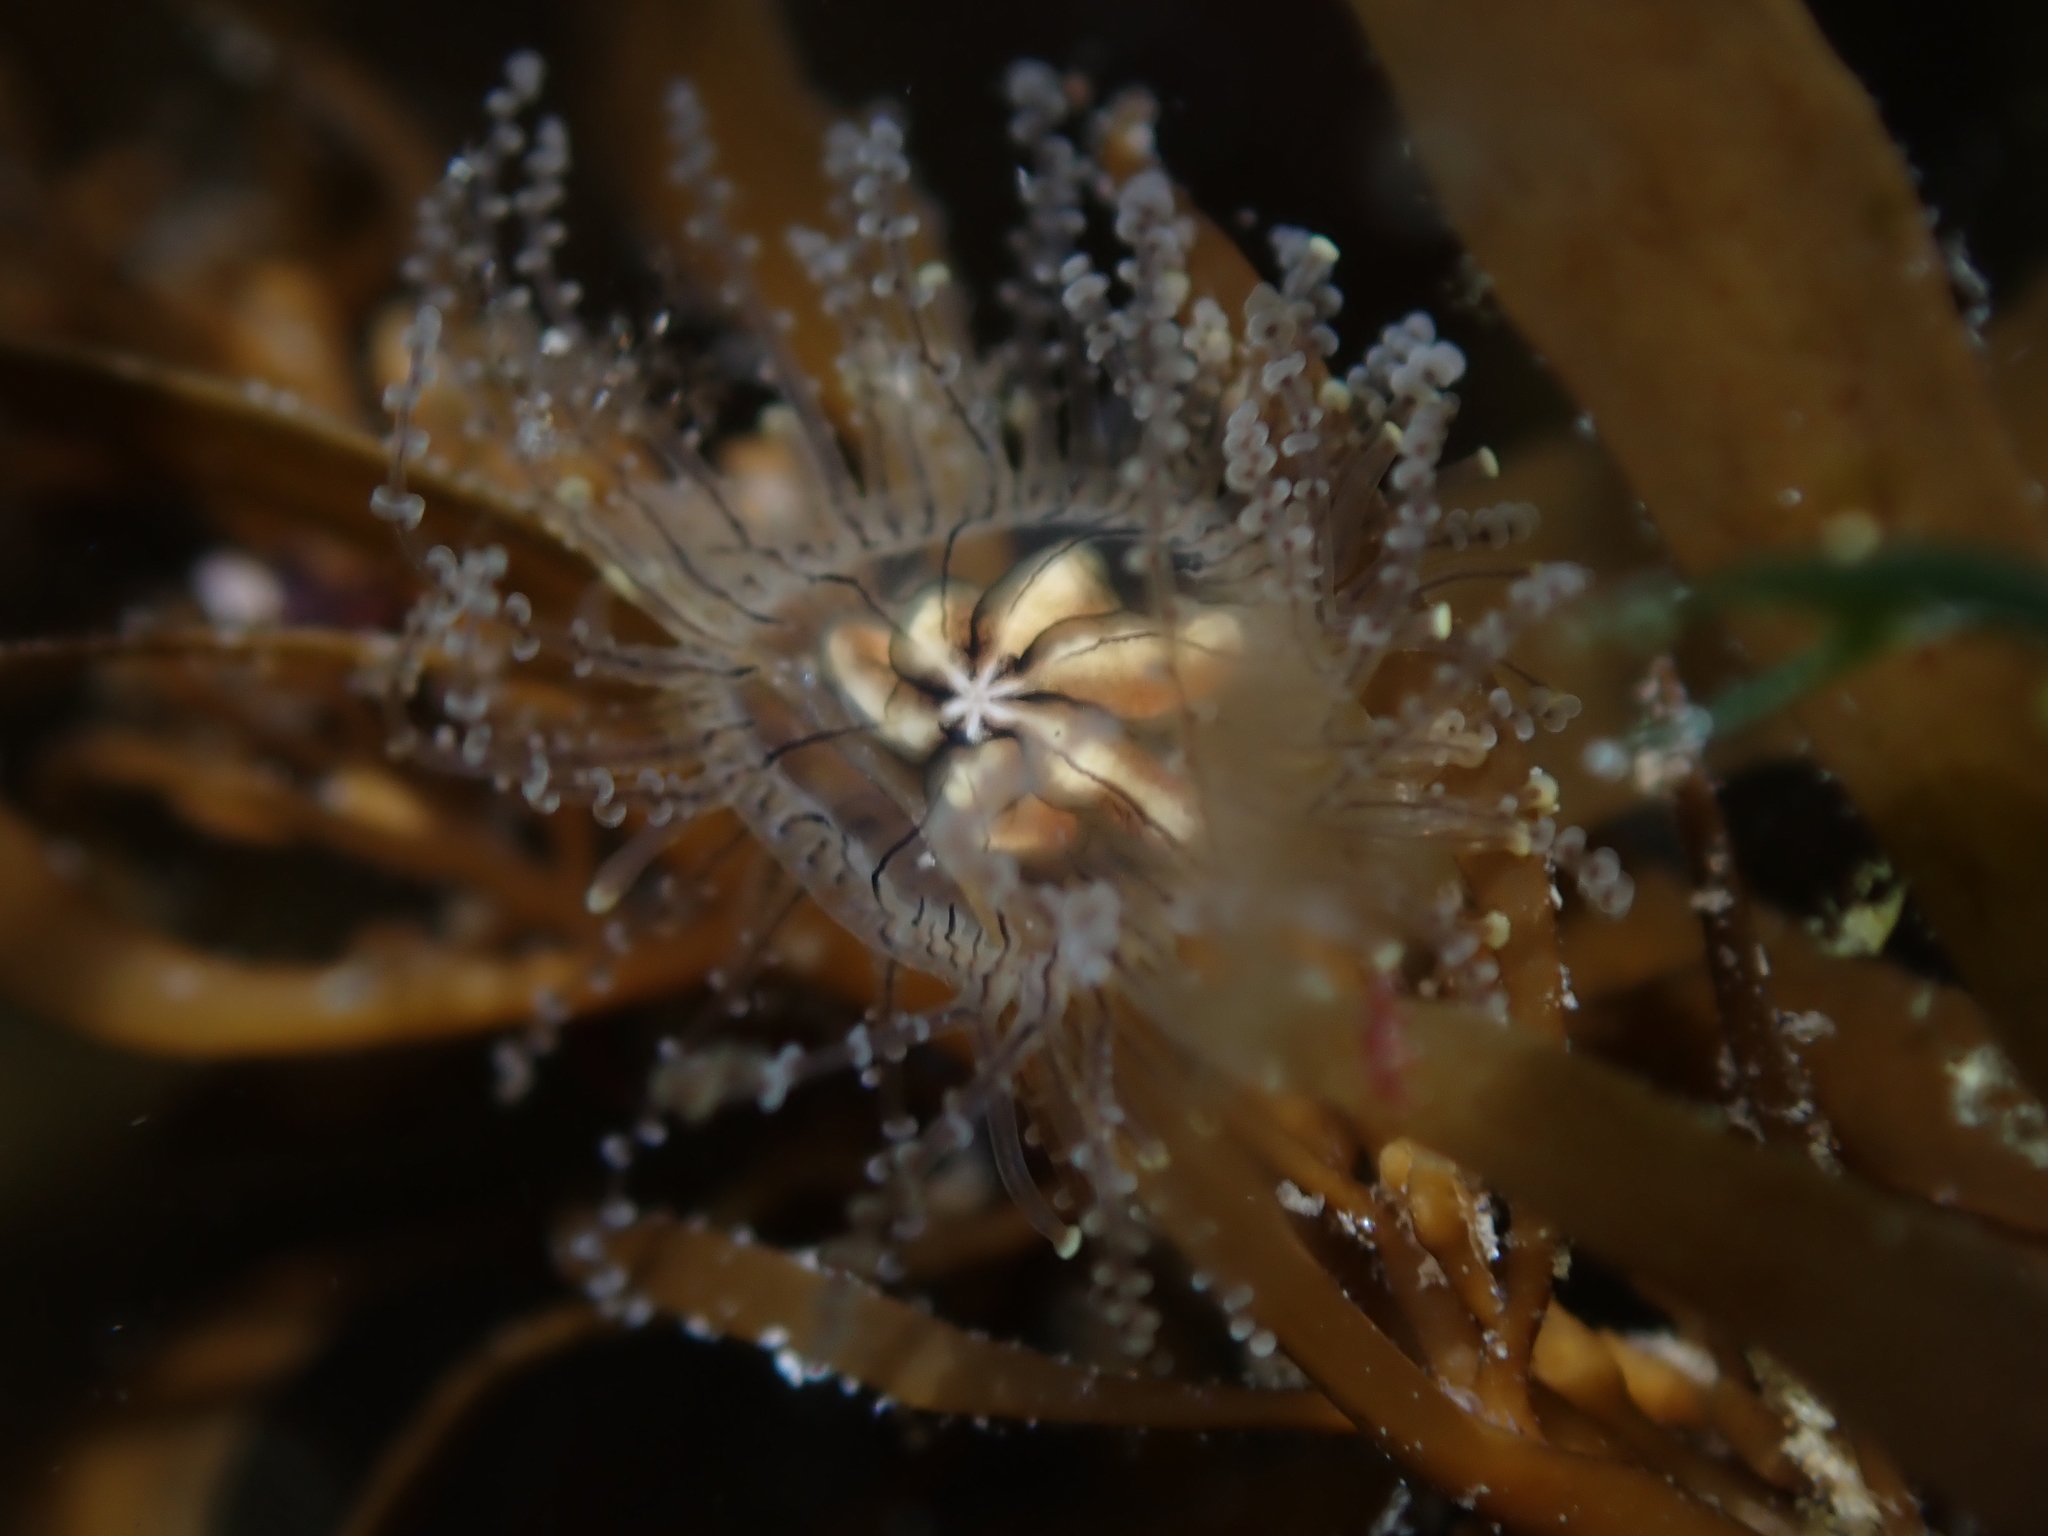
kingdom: Animalia
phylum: Cnidaria
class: Hydrozoa
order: Anthoathecata
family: Cladonematidae
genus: Staurocladia
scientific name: Staurocladia wellingtoni
